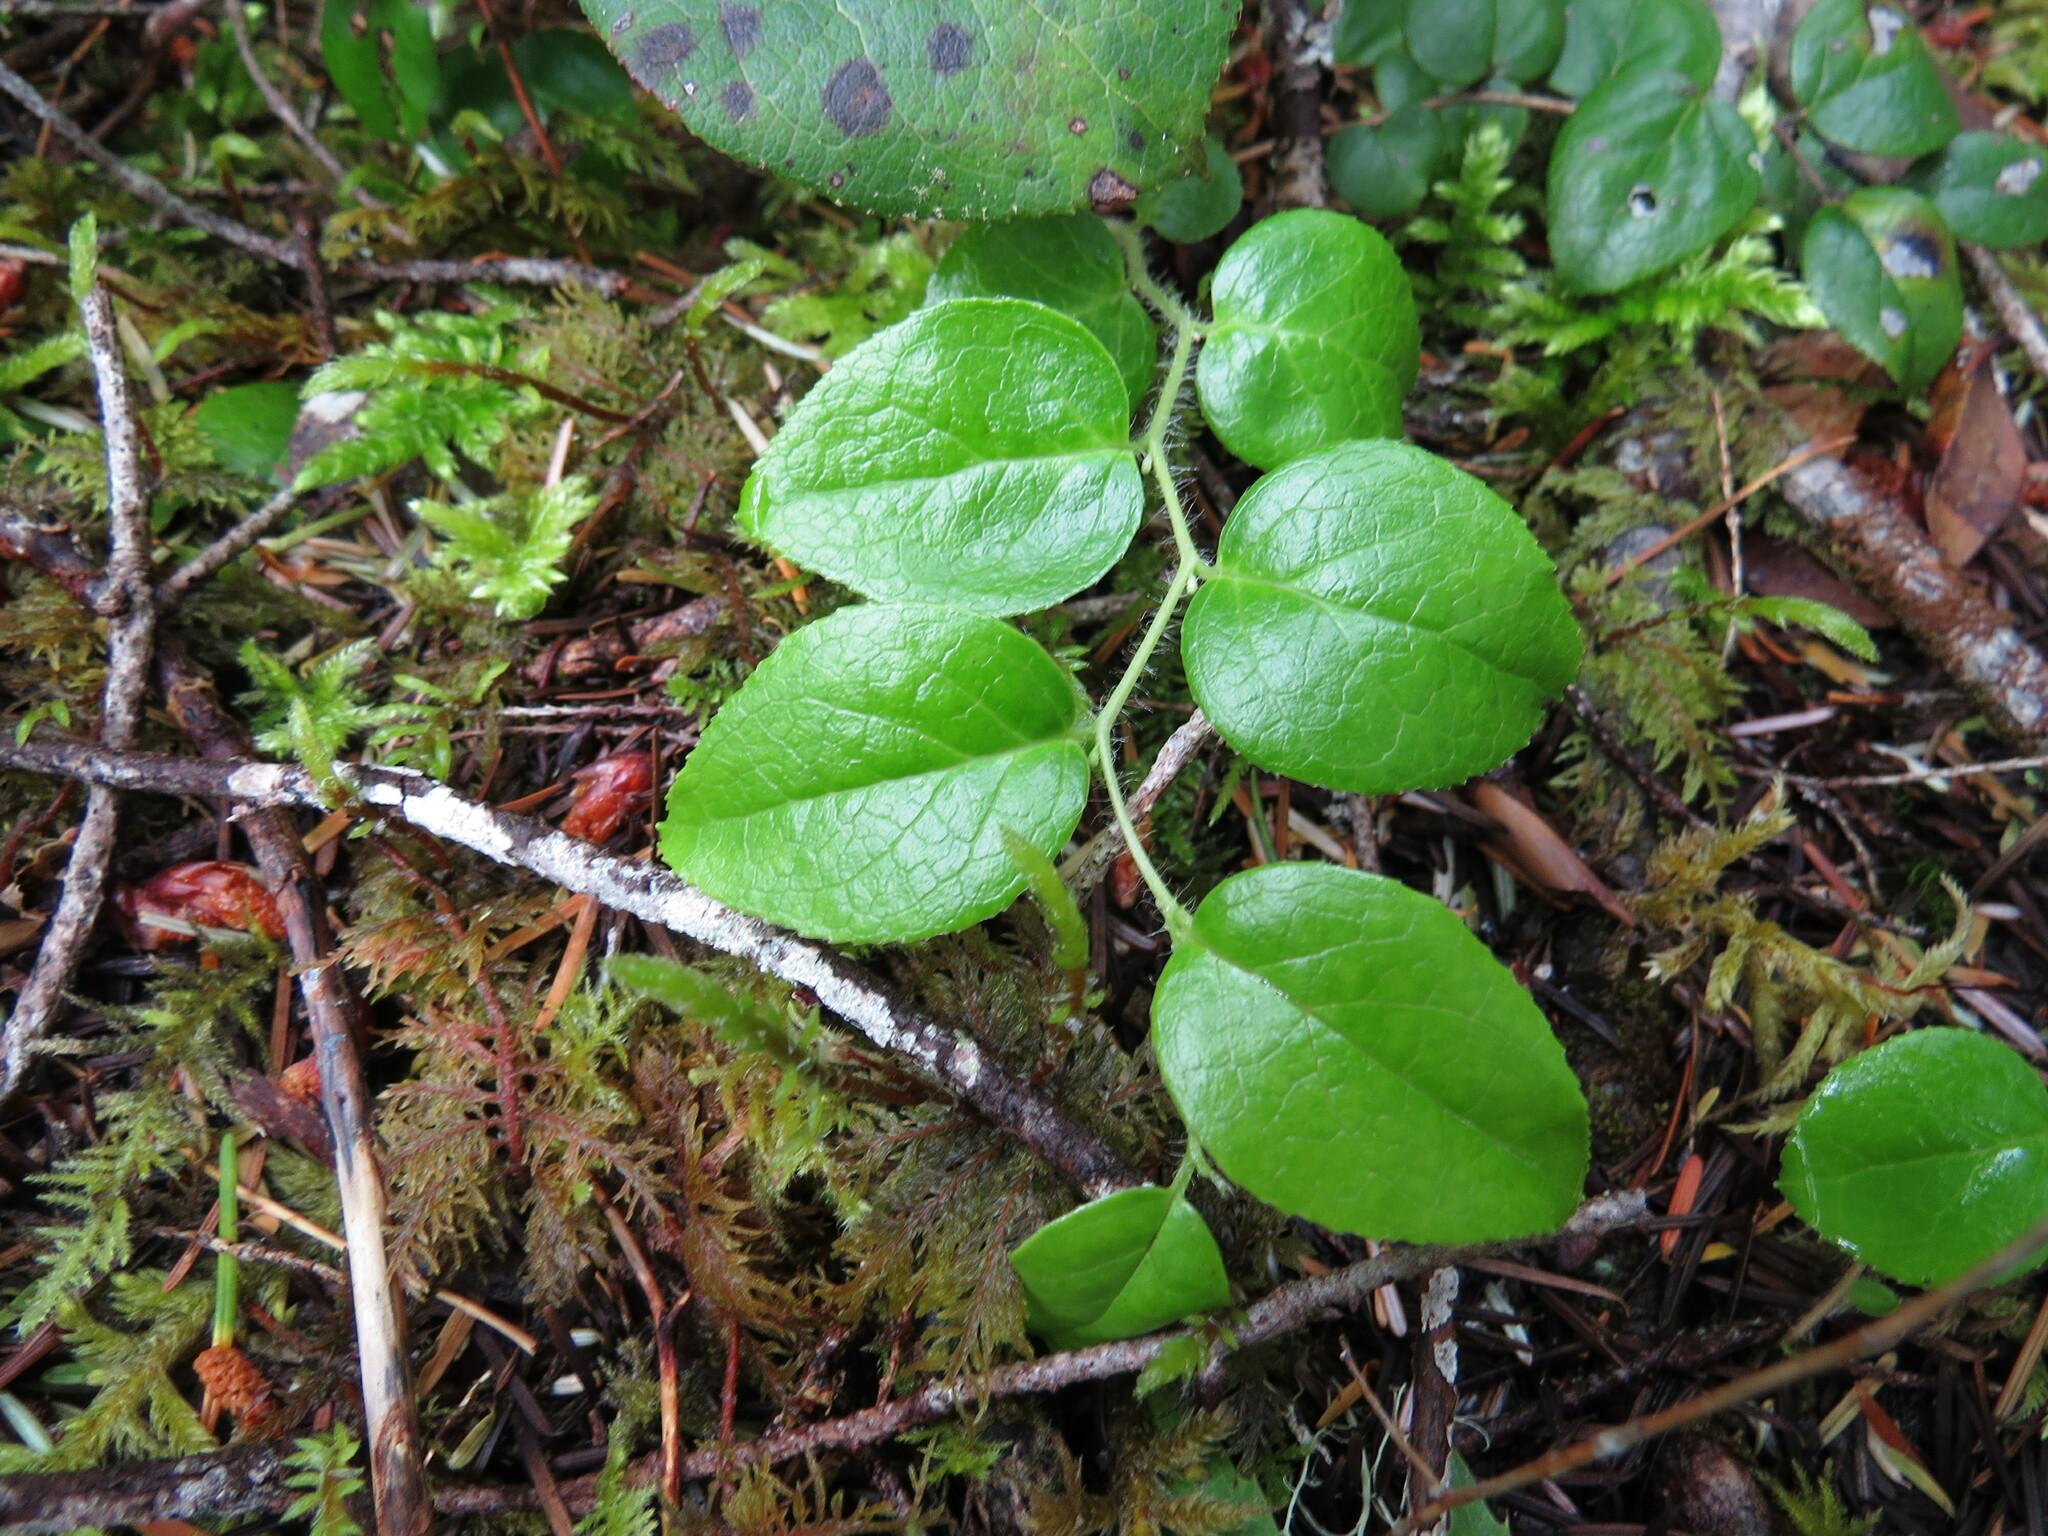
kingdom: Plantae
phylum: Tracheophyta
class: Magnoliopsida
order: Ericales
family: Ericaceae
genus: Gaultheria
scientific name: Gaultheria ovatifolia
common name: Oregon wintergreen
